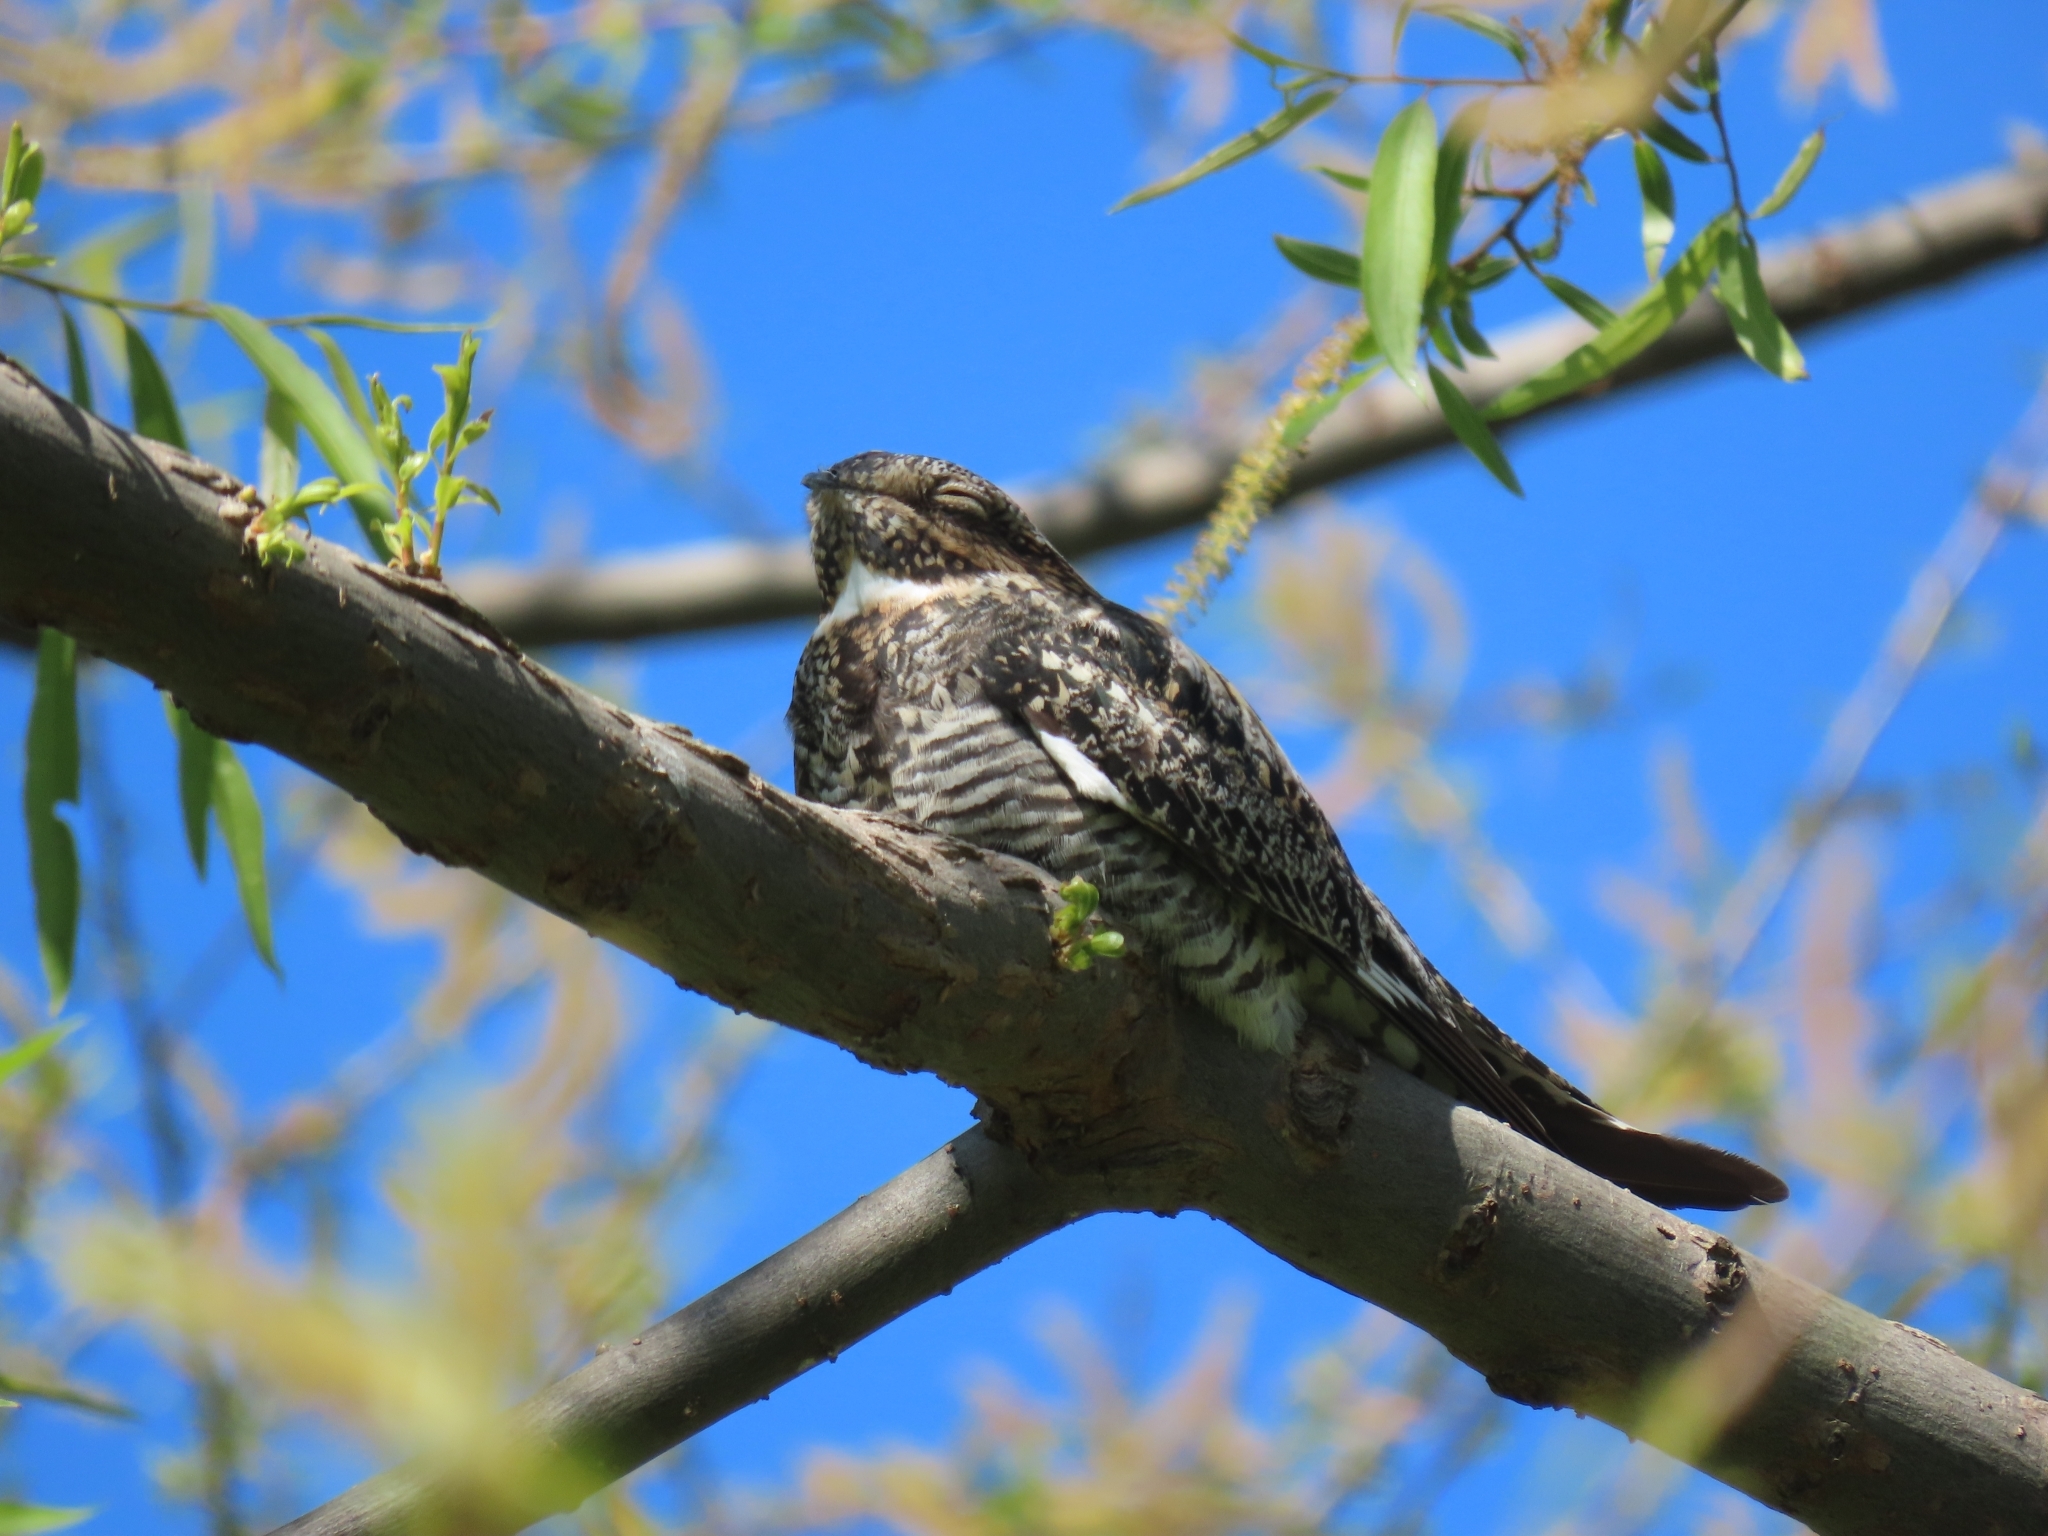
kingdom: Animalia
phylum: Chordata
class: Aves
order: Caprimulgiformes
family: Caprimulgidae
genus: Chordeiles
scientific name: Chordeiles minor
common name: Common nighthawk
